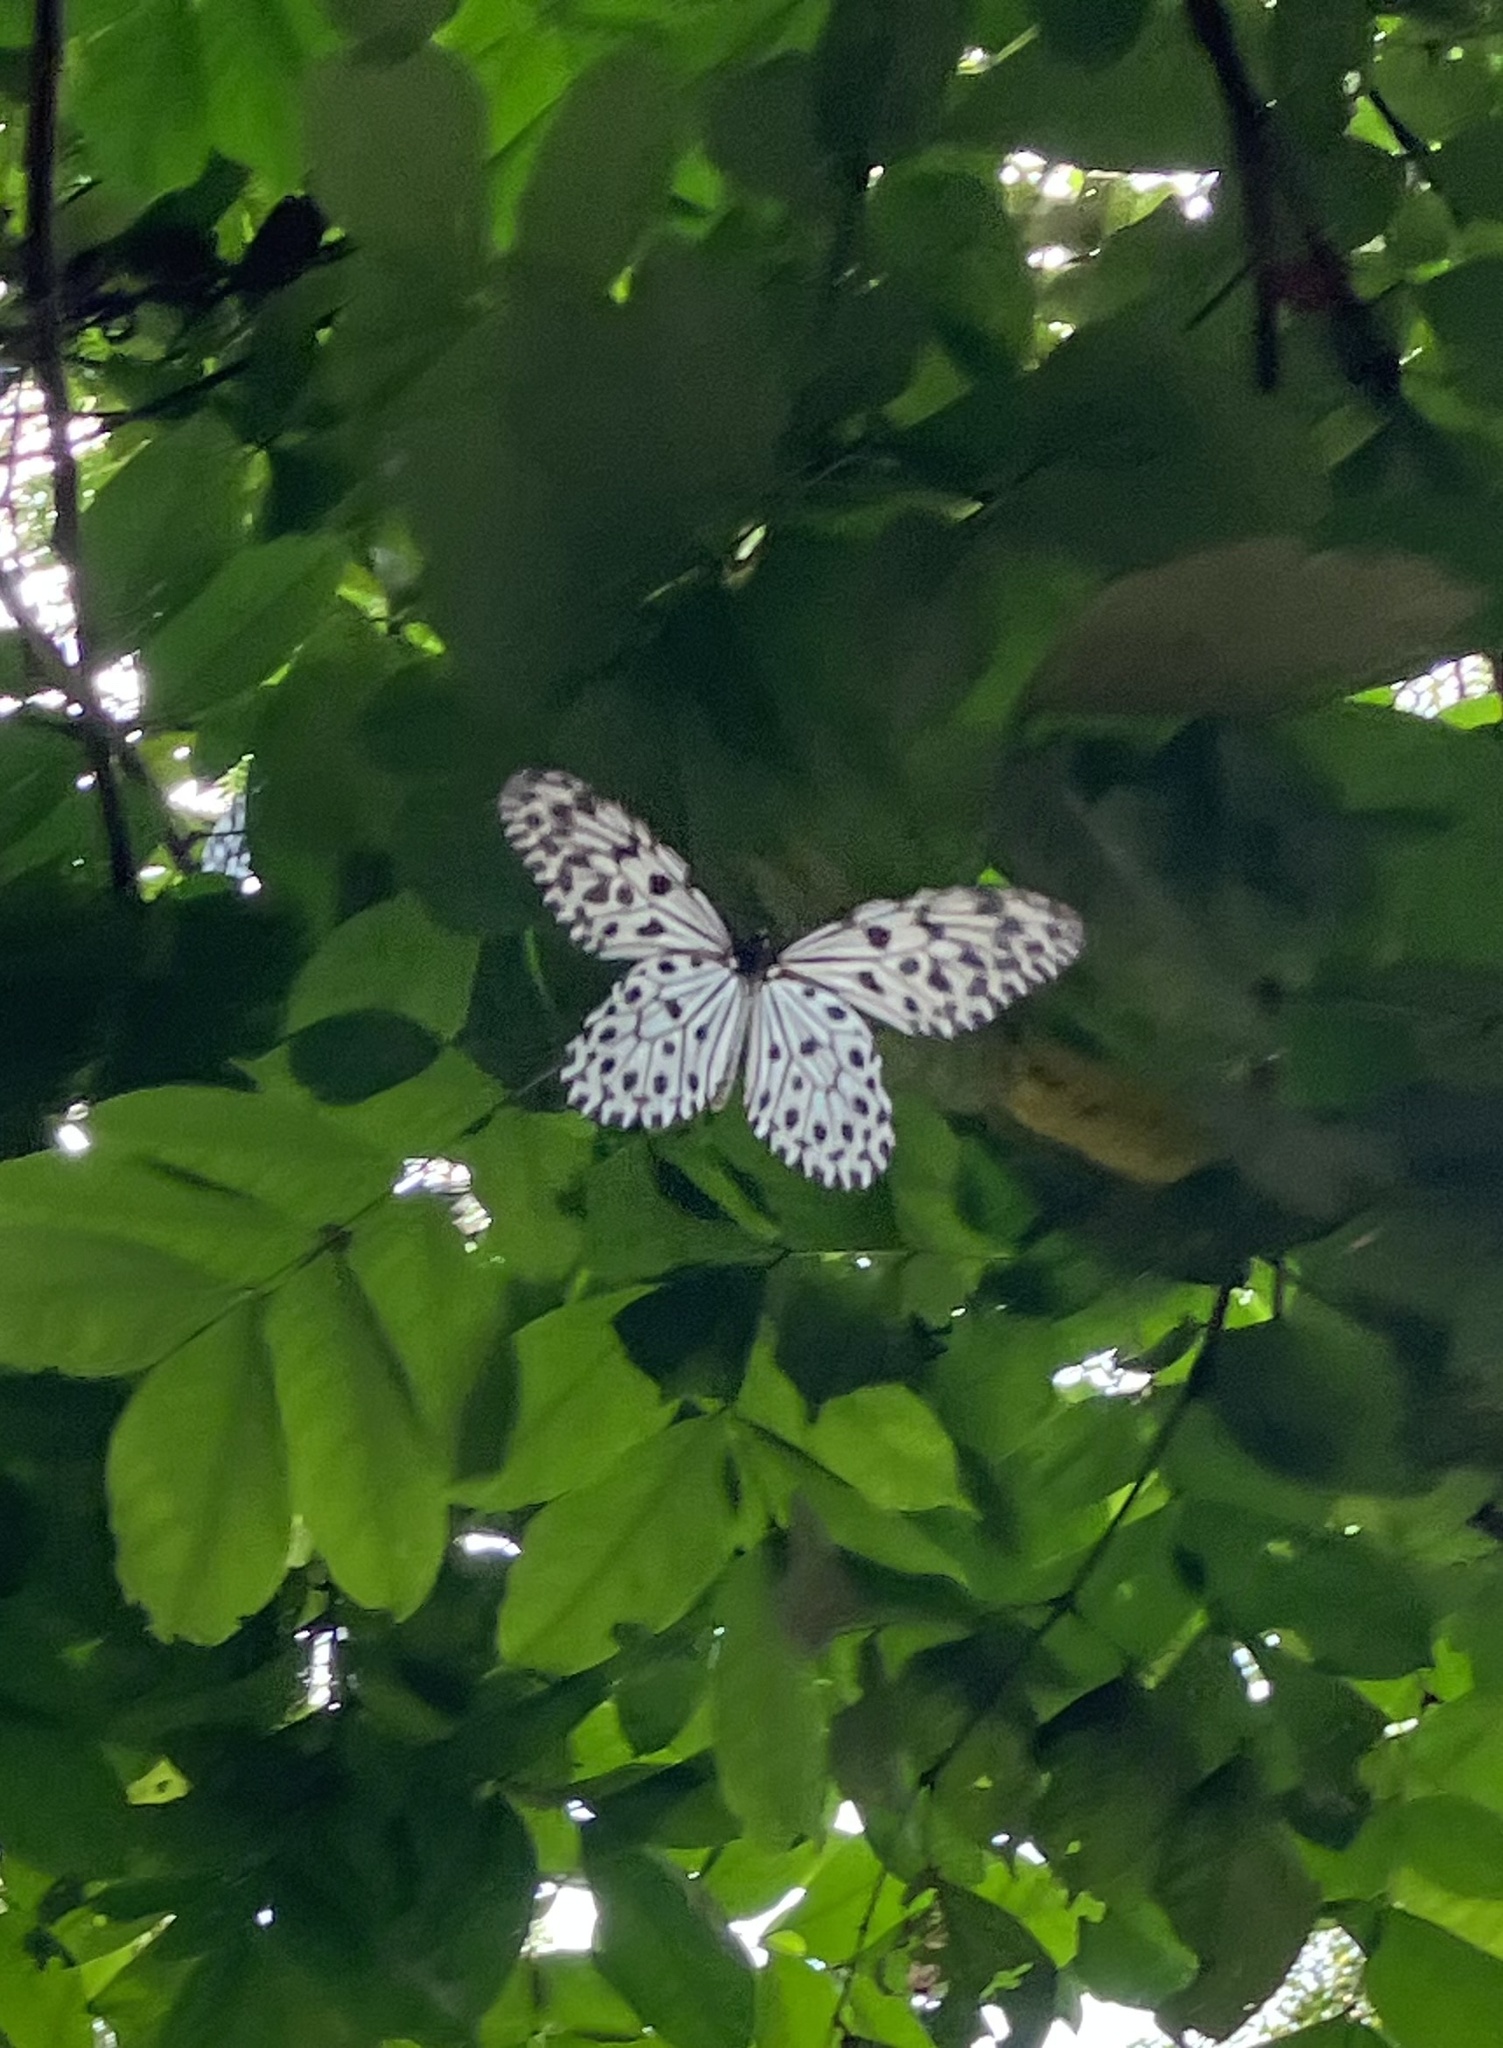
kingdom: Animalia
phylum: Arthropoda
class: Insecta
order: Lepidoptera
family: Nymphalidae
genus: Idea
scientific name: Idea malabarica
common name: Malabar tree-nymph
